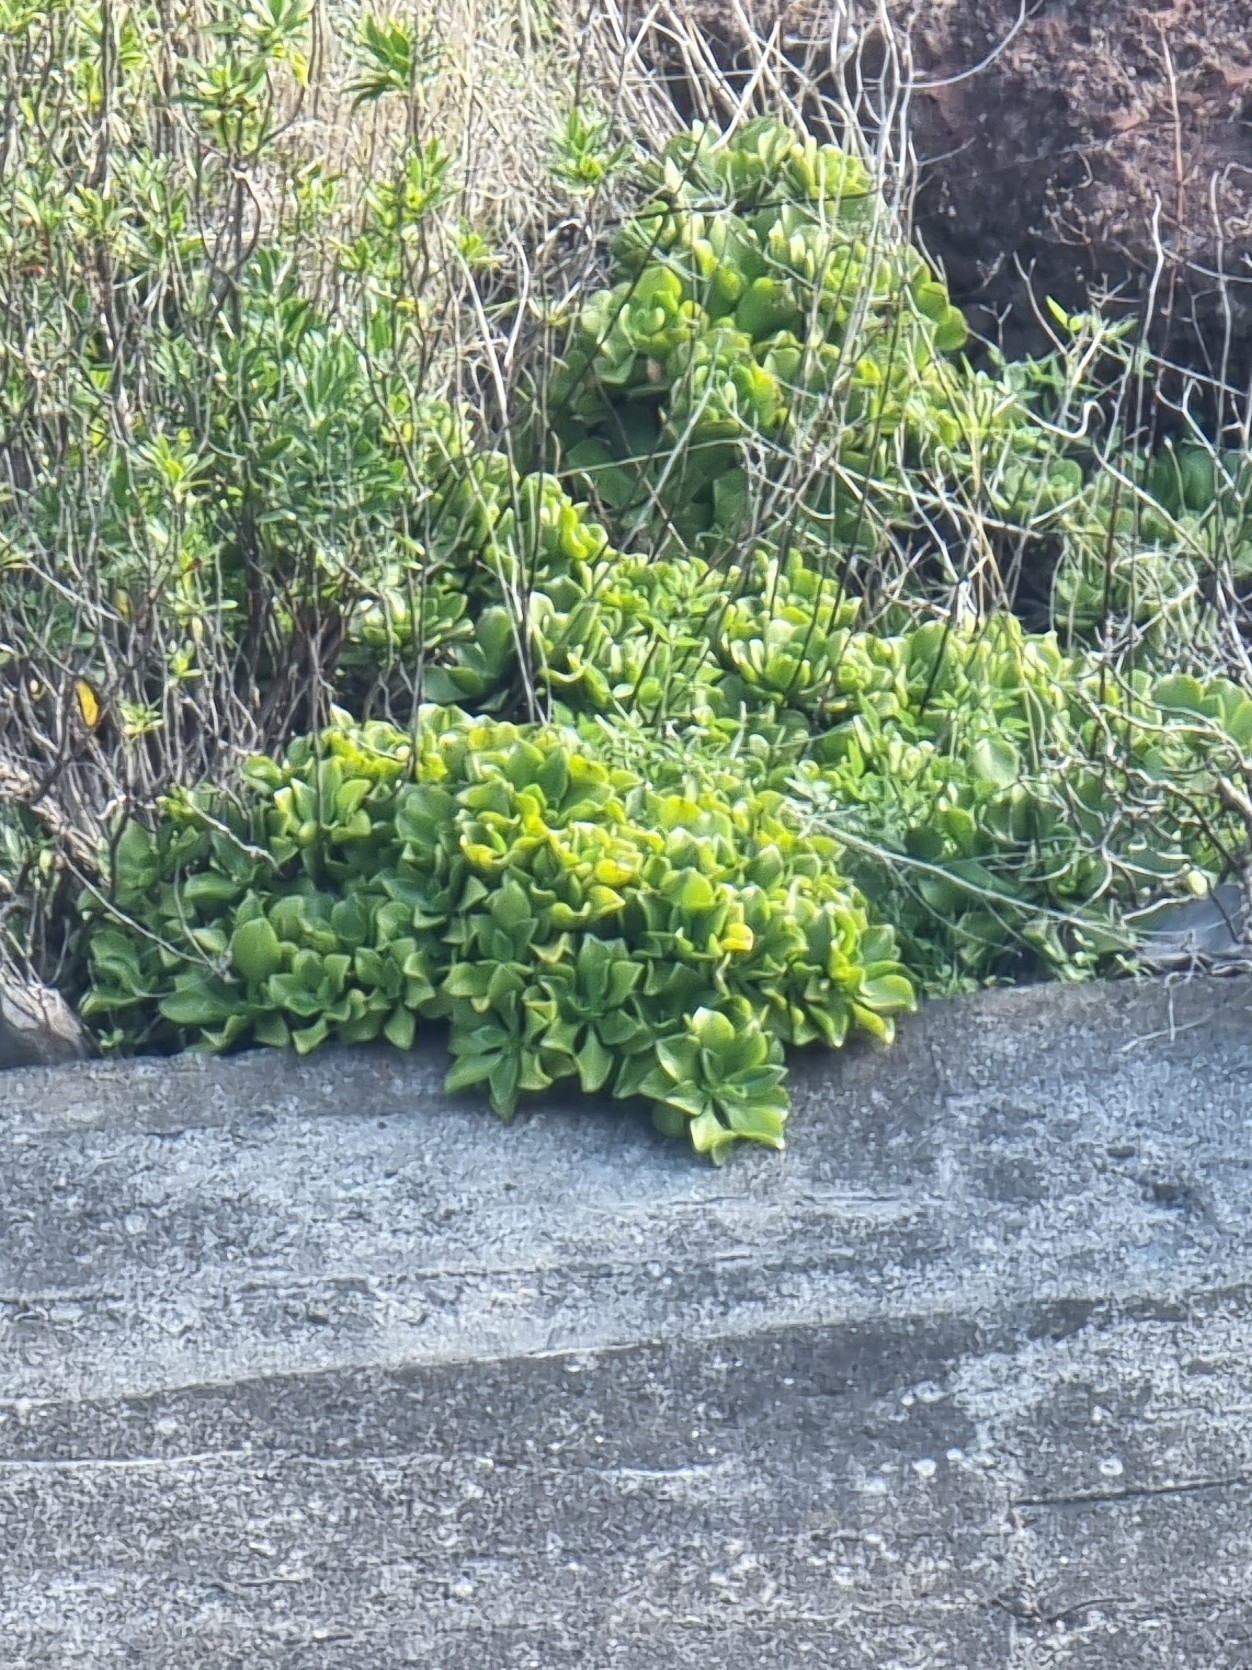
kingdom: Plantae
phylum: Tracheophyta
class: Magnoliopsida
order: Saxifragales
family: Crassulaceae
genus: Aeonium
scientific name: Aeonium glutinosum
